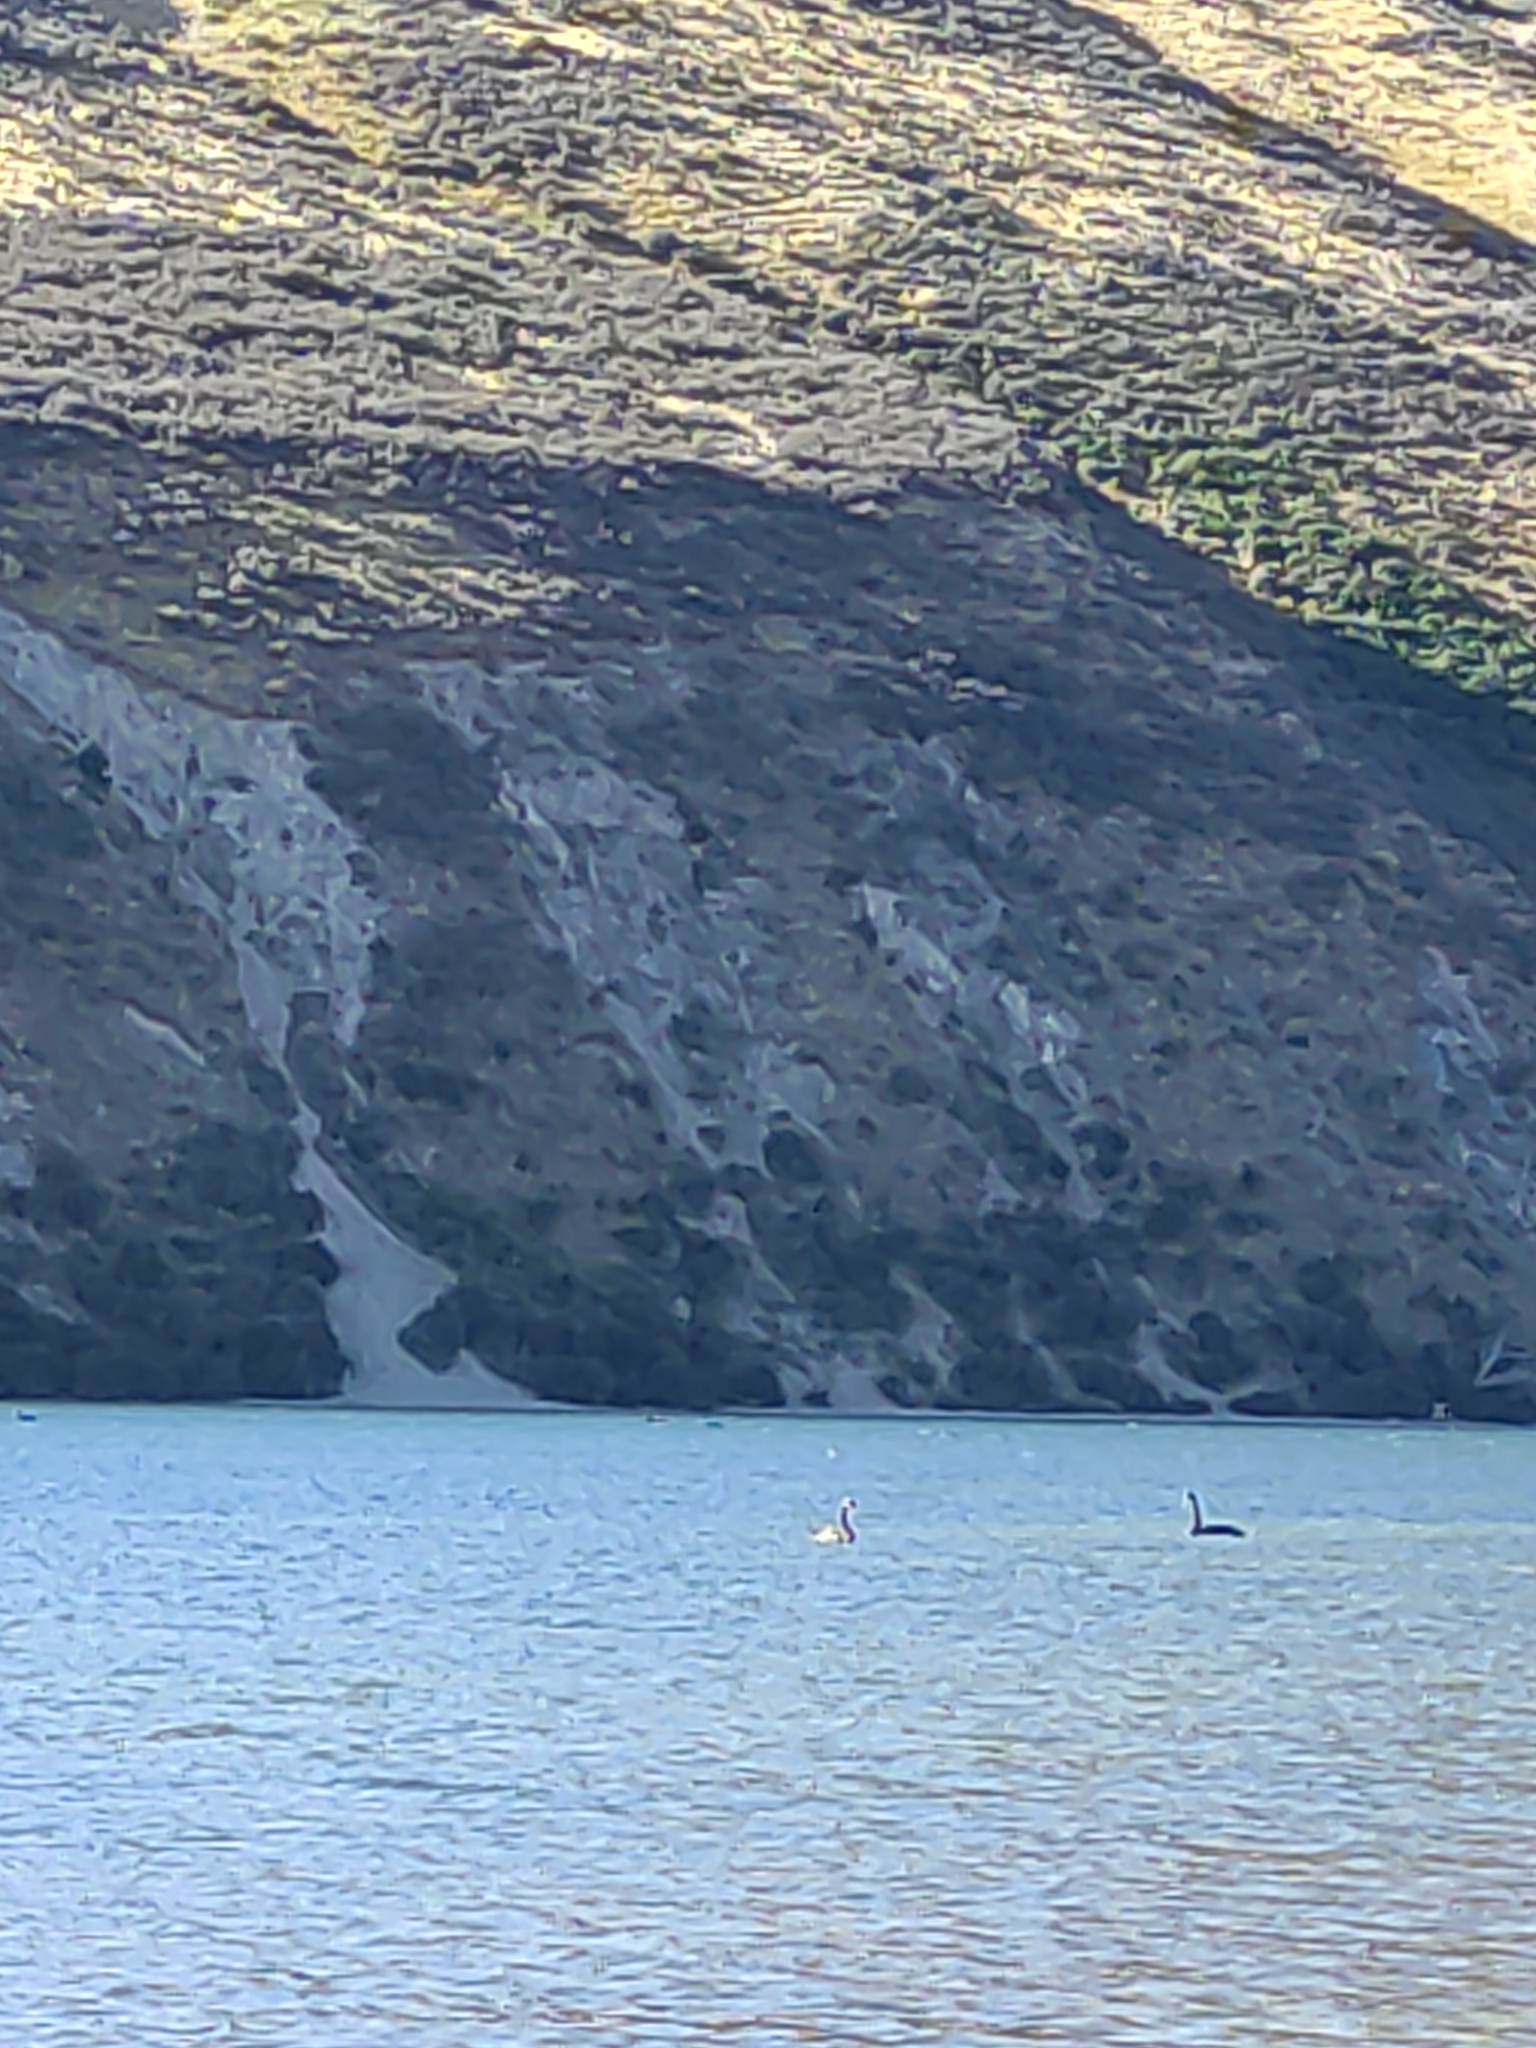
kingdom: Animalia
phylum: Chordata
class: Aves
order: Anseriformes
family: Anatidae
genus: Cygnus
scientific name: Cygnus atratus
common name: Black swan
